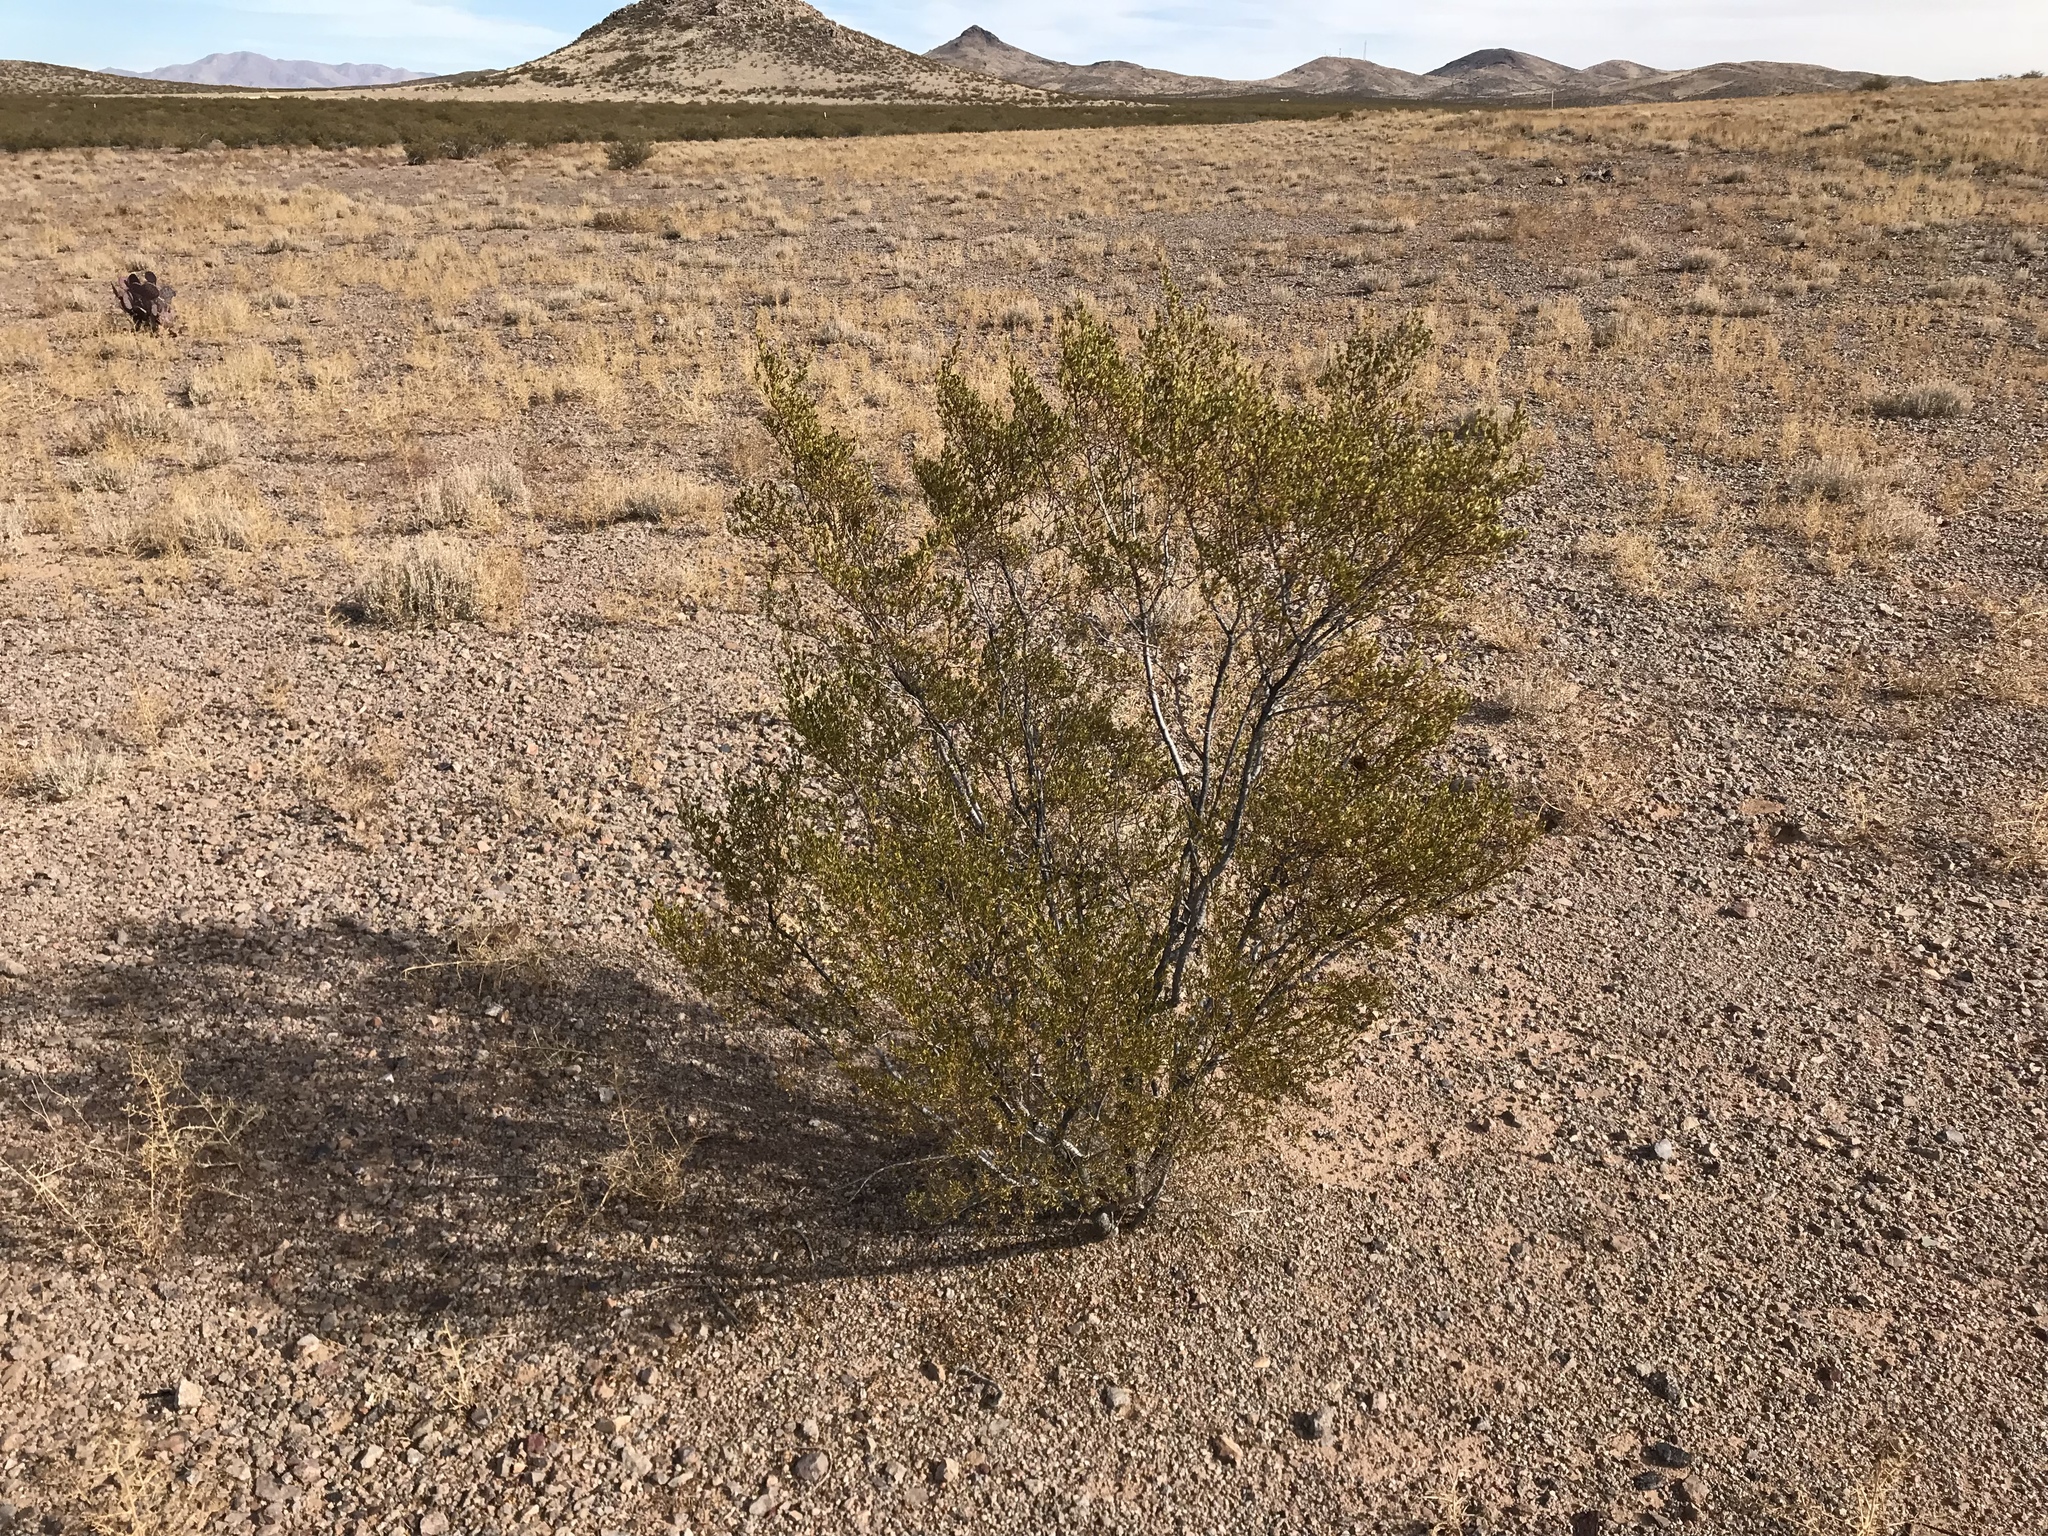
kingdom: Plantae
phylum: Tracheophyta
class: Magnoliopsida
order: Zygophyllales
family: Zygophyllaceae
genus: Larrea
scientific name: Larrea tridentata
